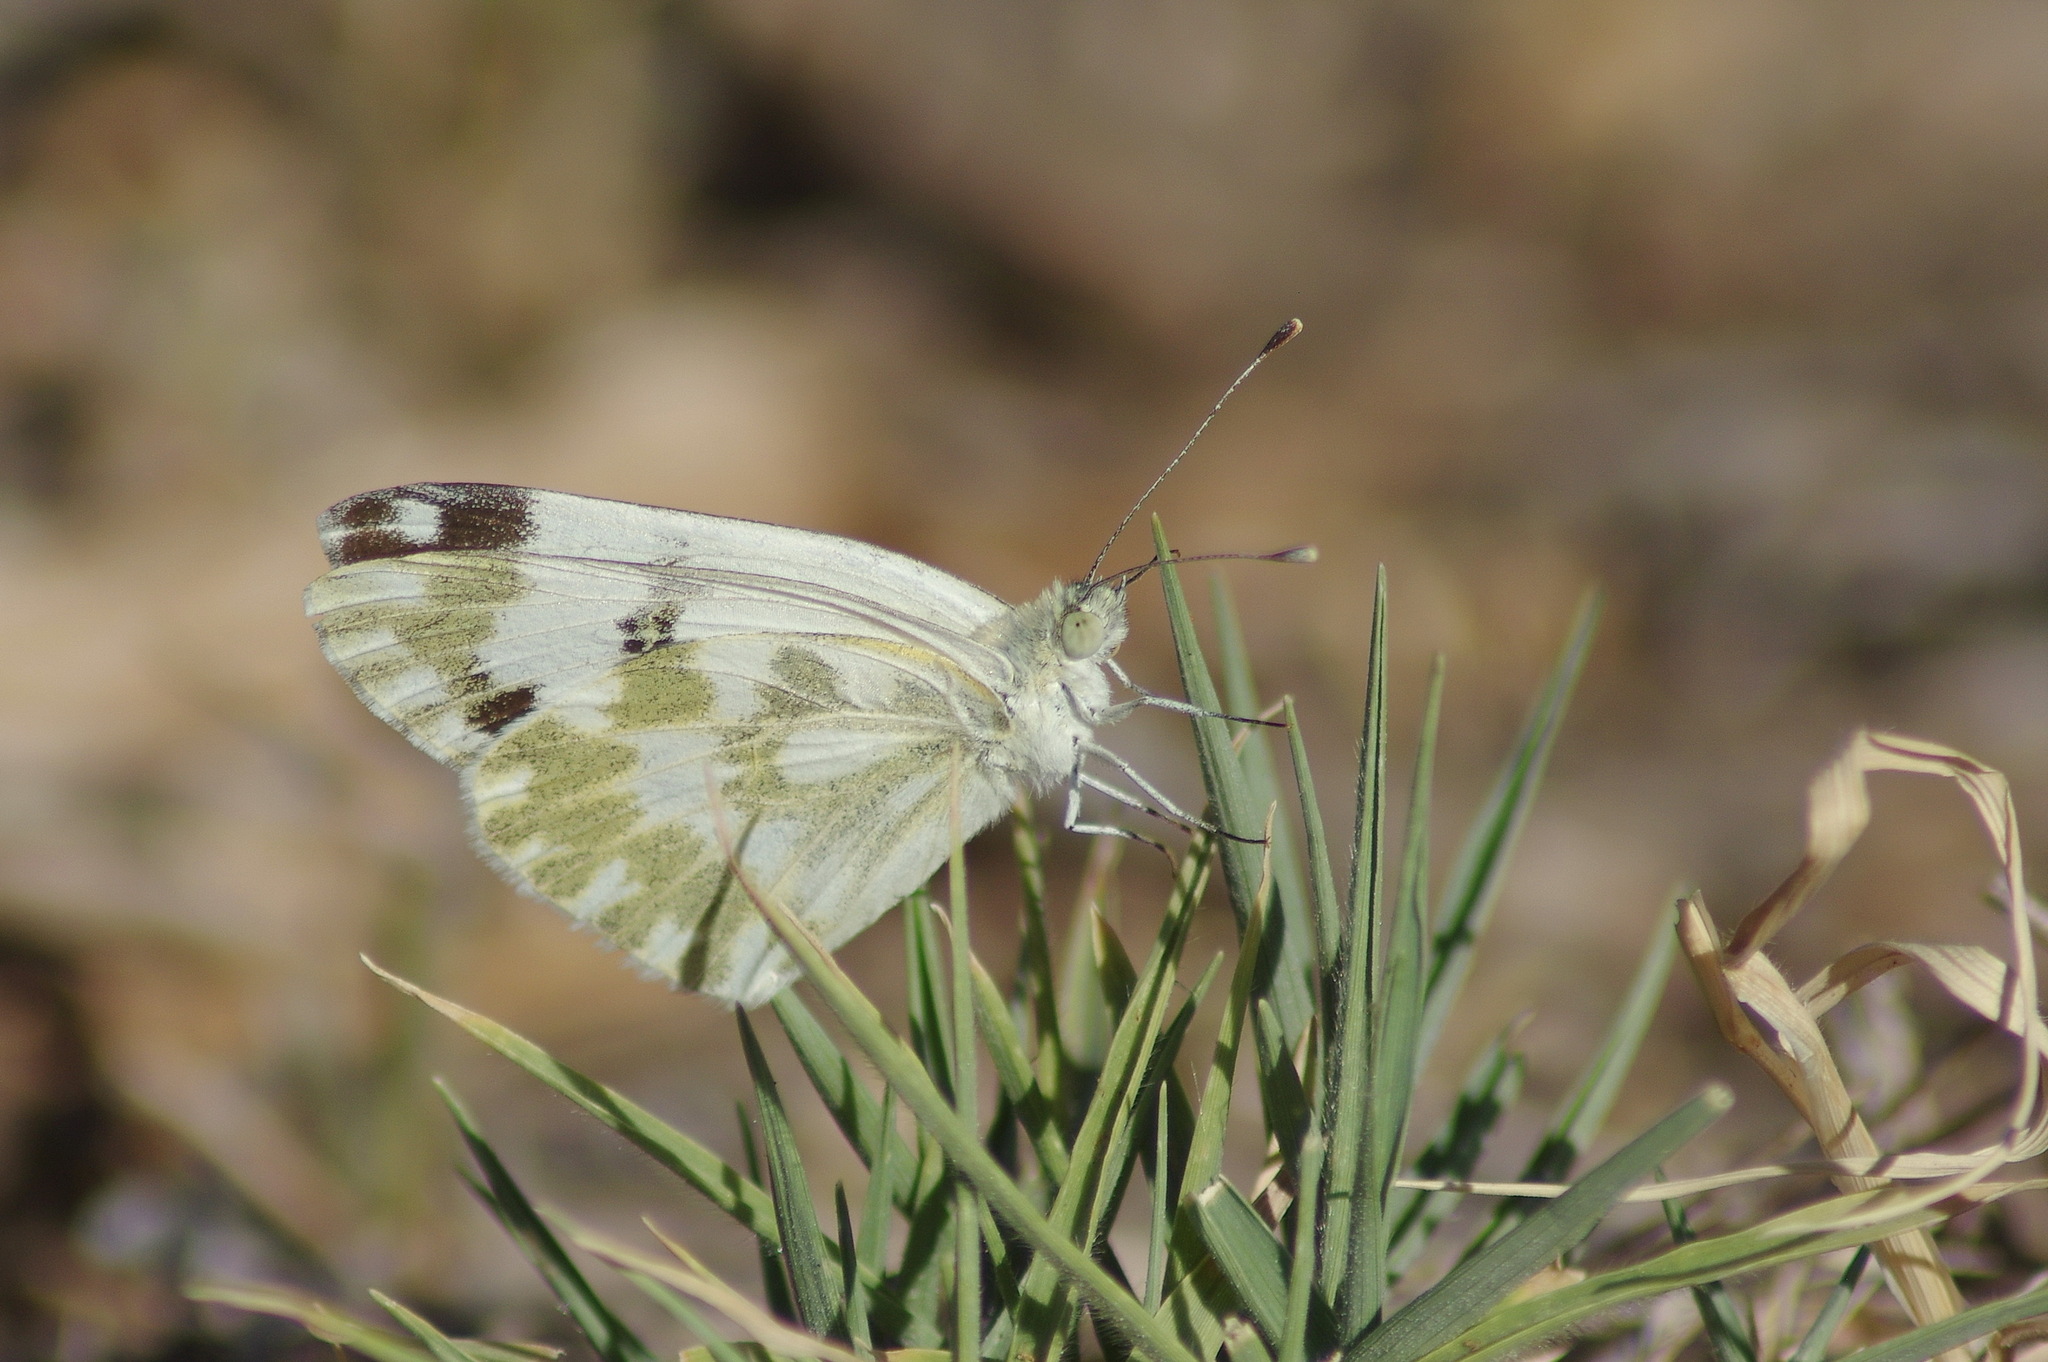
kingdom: Animalia
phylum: Arthropoda
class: Insecta
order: Lepidoptera
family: Pieridae
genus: Pontia
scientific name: Pontia daplidice
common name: Bath white
